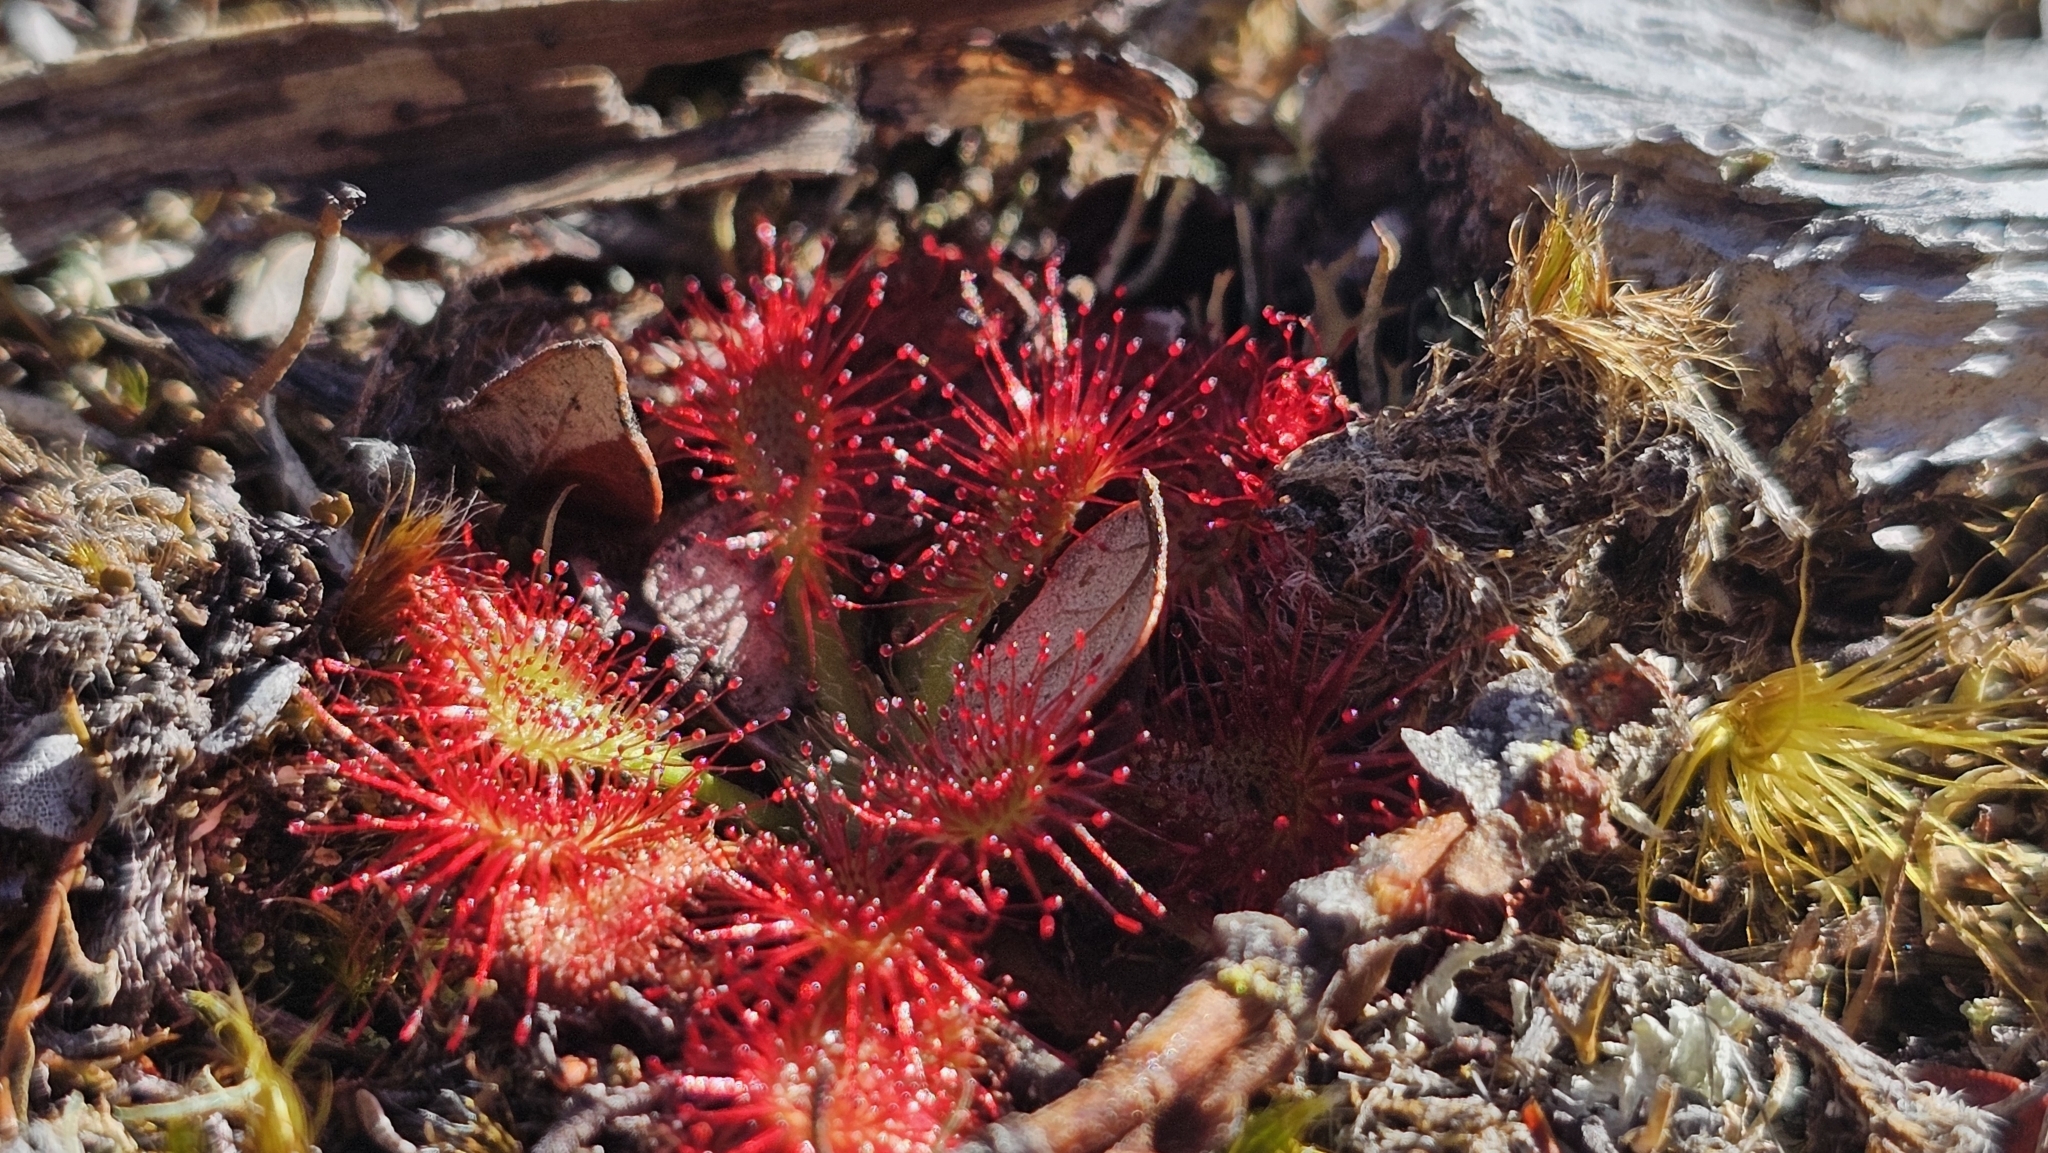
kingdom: Plantae
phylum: Tracheophyta
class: Magnoliopsida
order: Caryophyllales
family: Droseraceae
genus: Drosera
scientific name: Drosera spatulata
